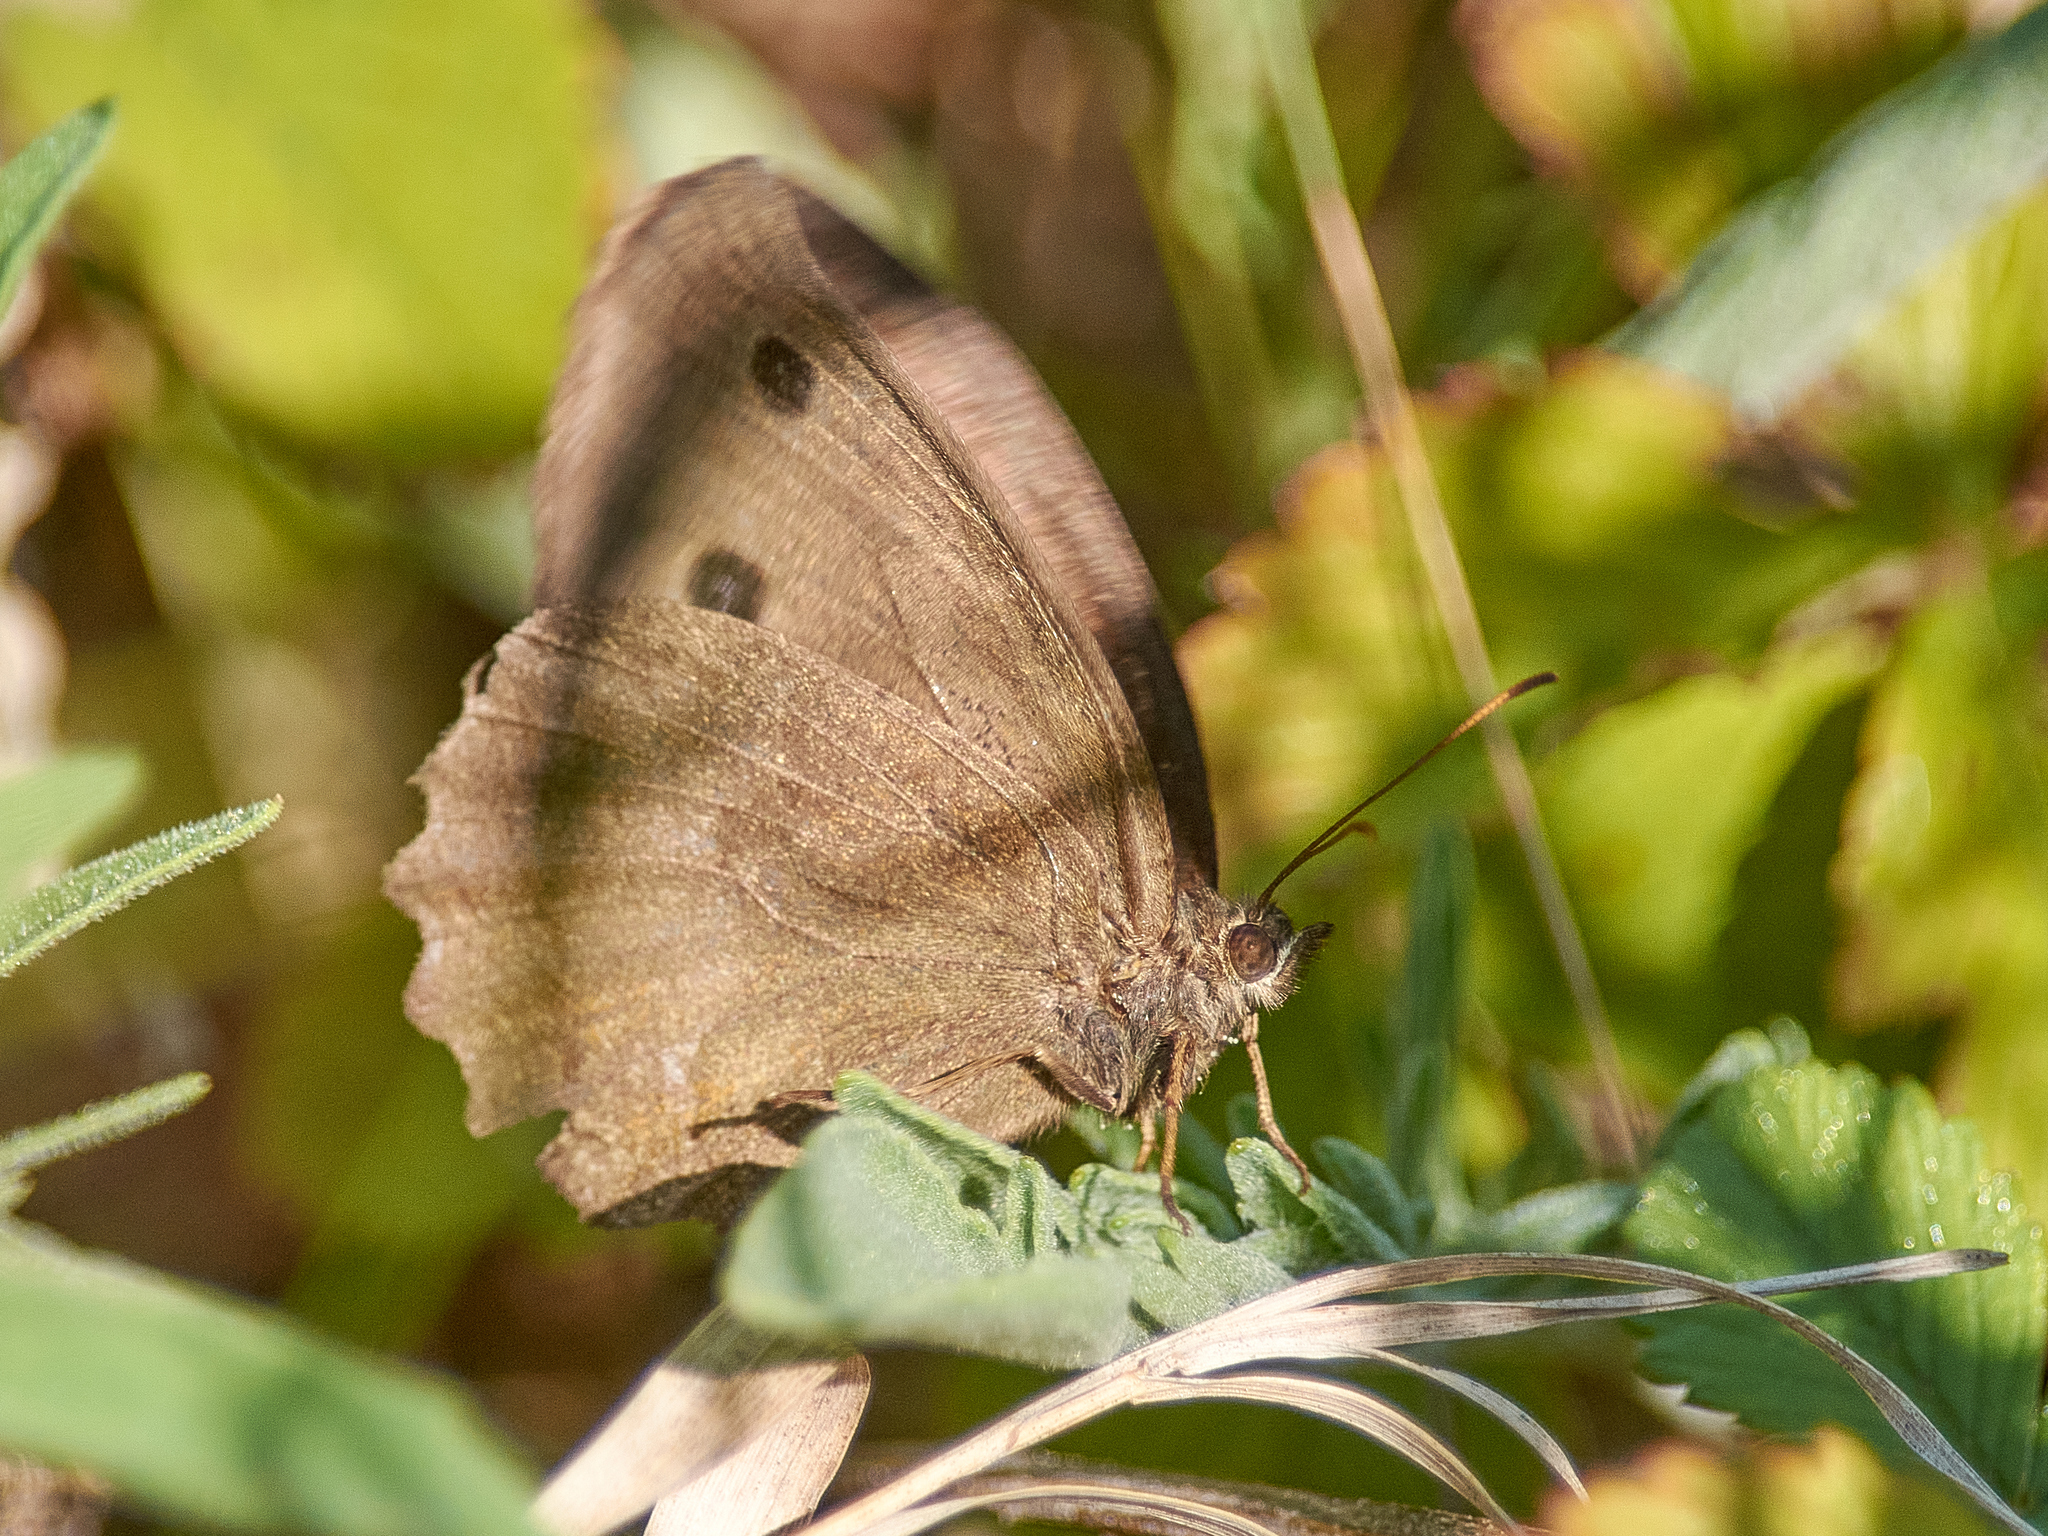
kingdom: Animalia
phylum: Arthropoda
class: Insecta
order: Lepidoptera
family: Nymphalidae
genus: Minois
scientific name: Minois dryas
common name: Dryad
